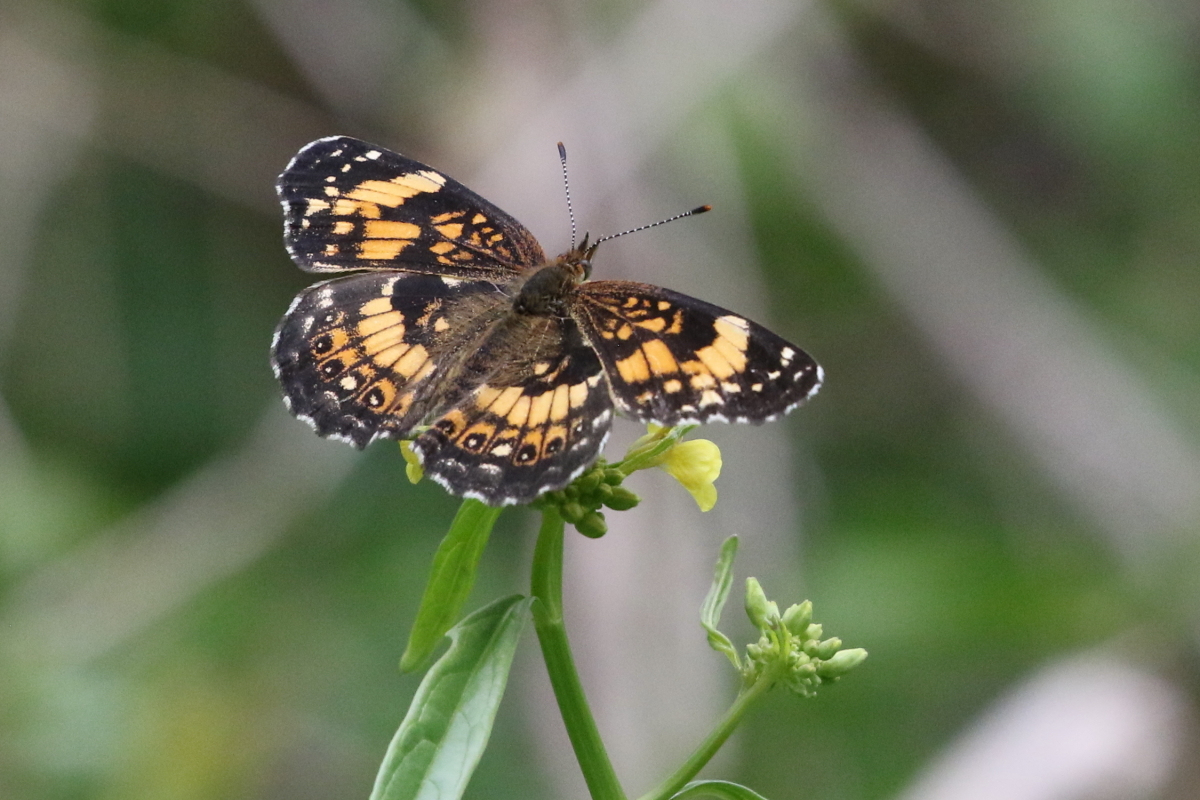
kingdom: Animalia
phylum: Arthropoda
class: Insecta
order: Lepidoptera
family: Nymphalidae
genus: Chlosyne
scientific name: Chlosyne nycteis
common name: Silvery checkerspot
